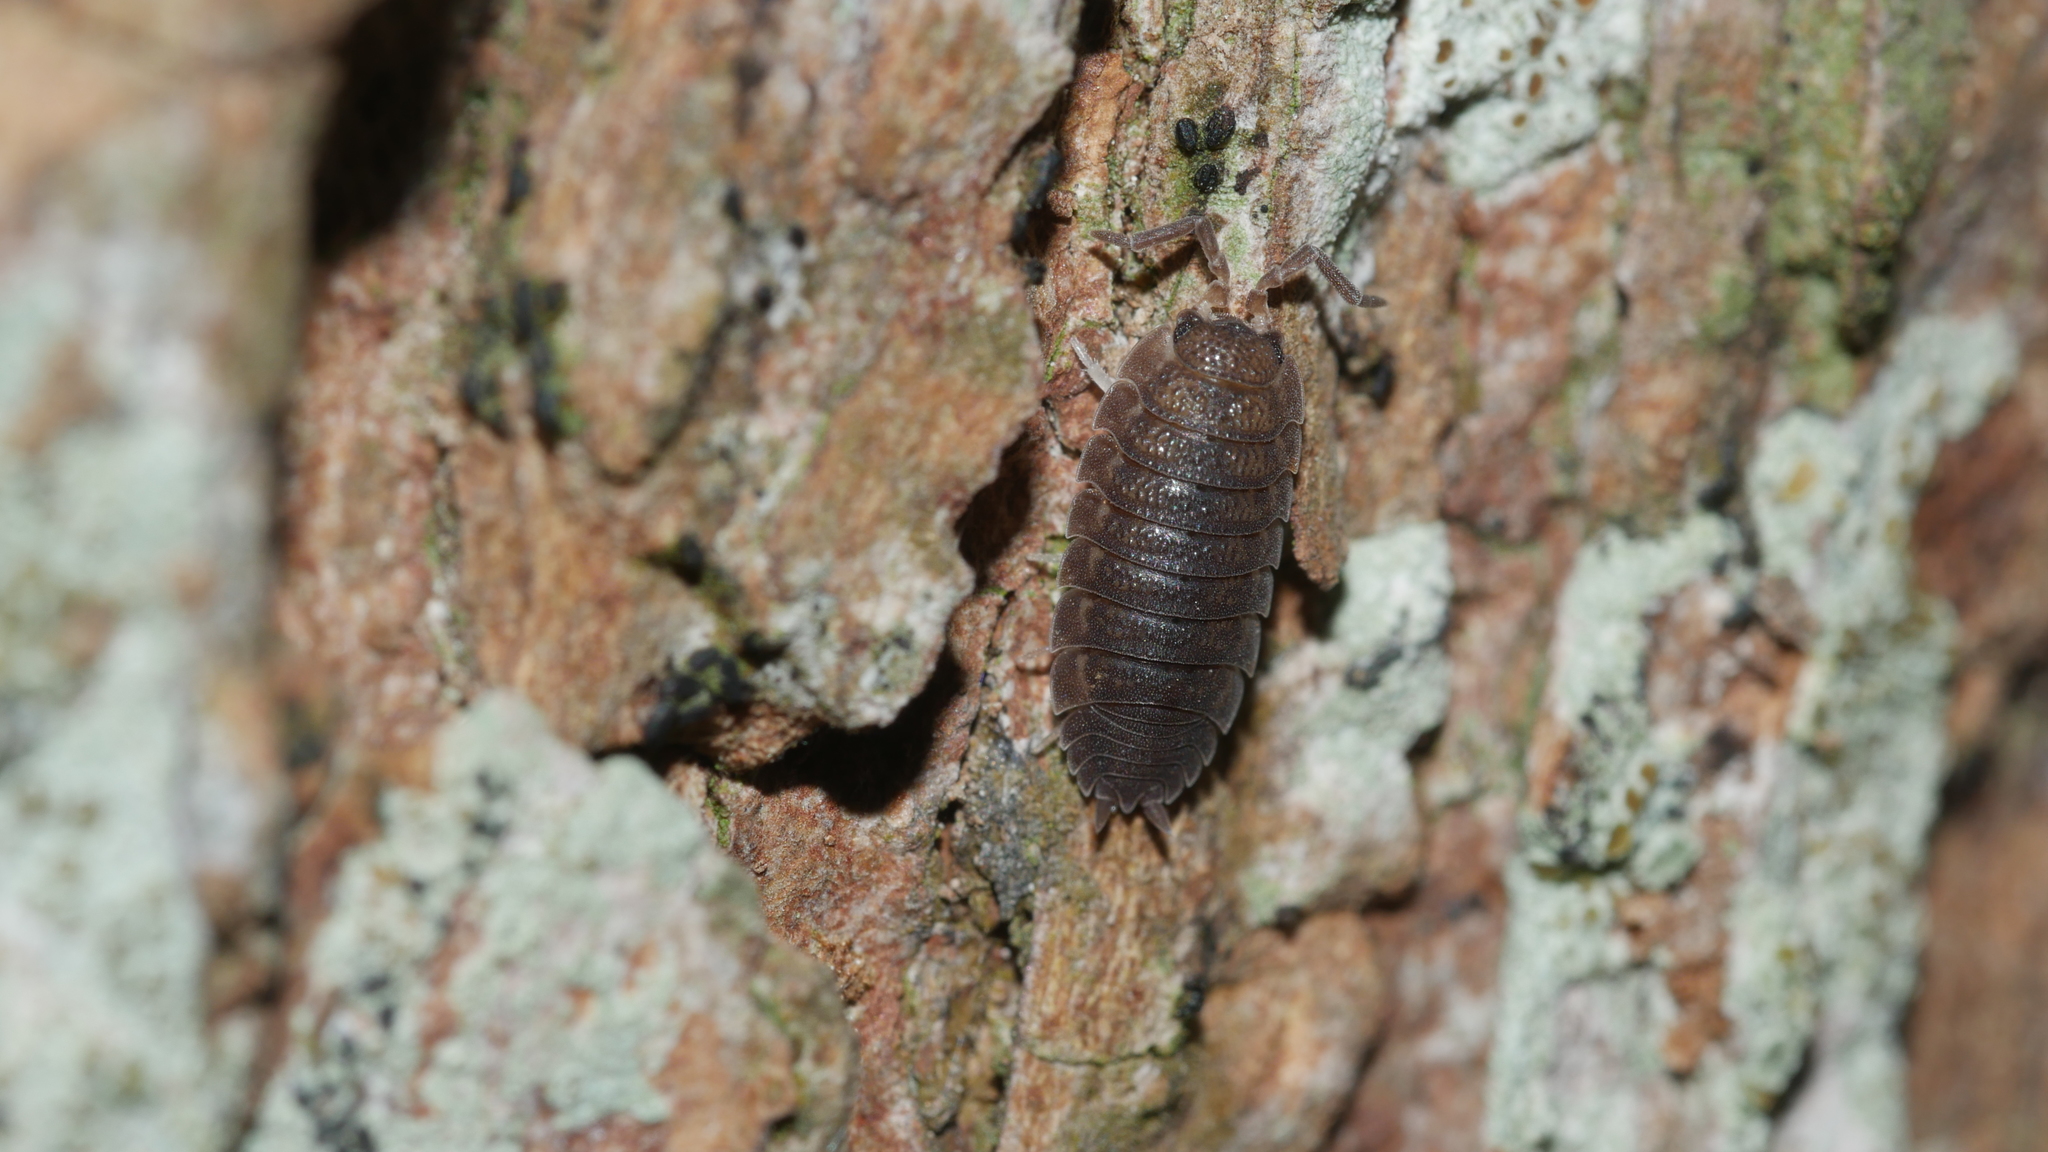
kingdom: Animalia
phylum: Arthropoda
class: Malacostraca
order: Isopoda
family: Porcellionidae
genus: Porcellio
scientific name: Porcellio scaber
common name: Common rough woodlouse
